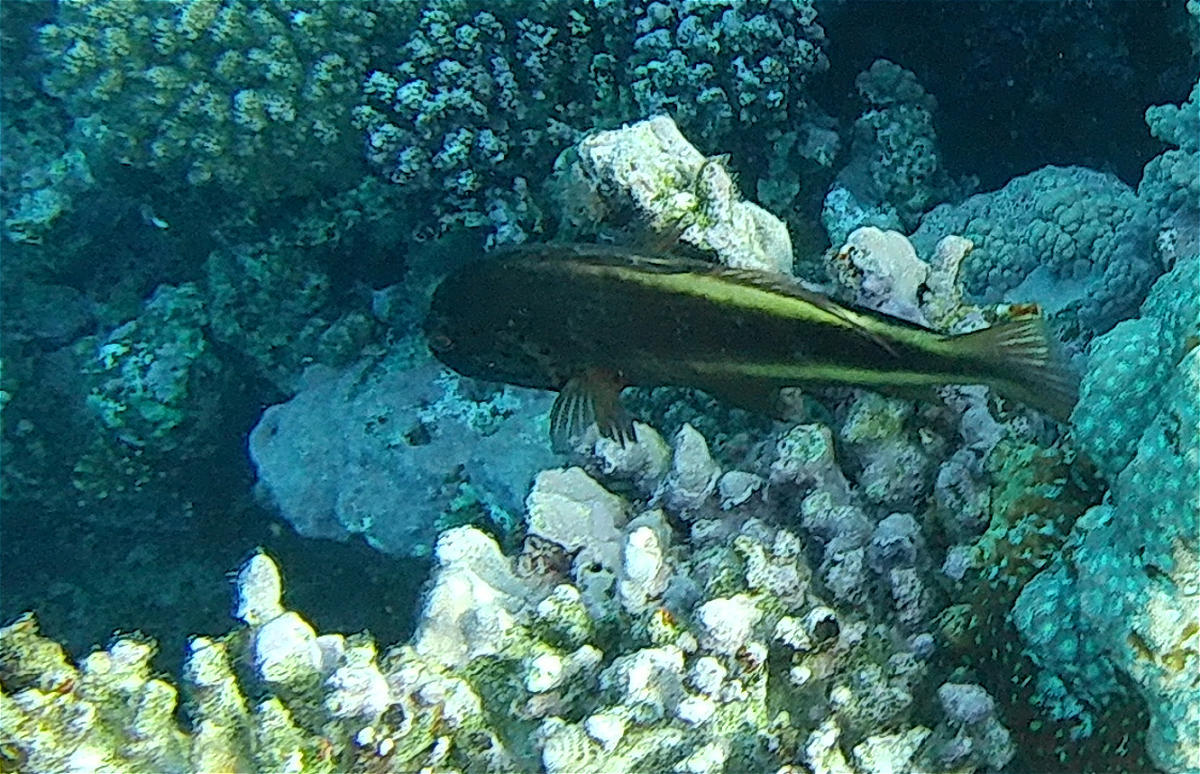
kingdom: Animalia
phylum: Chordata
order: Perciformes
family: Cirrhitidae
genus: Paracirrhites
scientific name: Paracirrhites forsteri
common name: Freckled hawkfish
